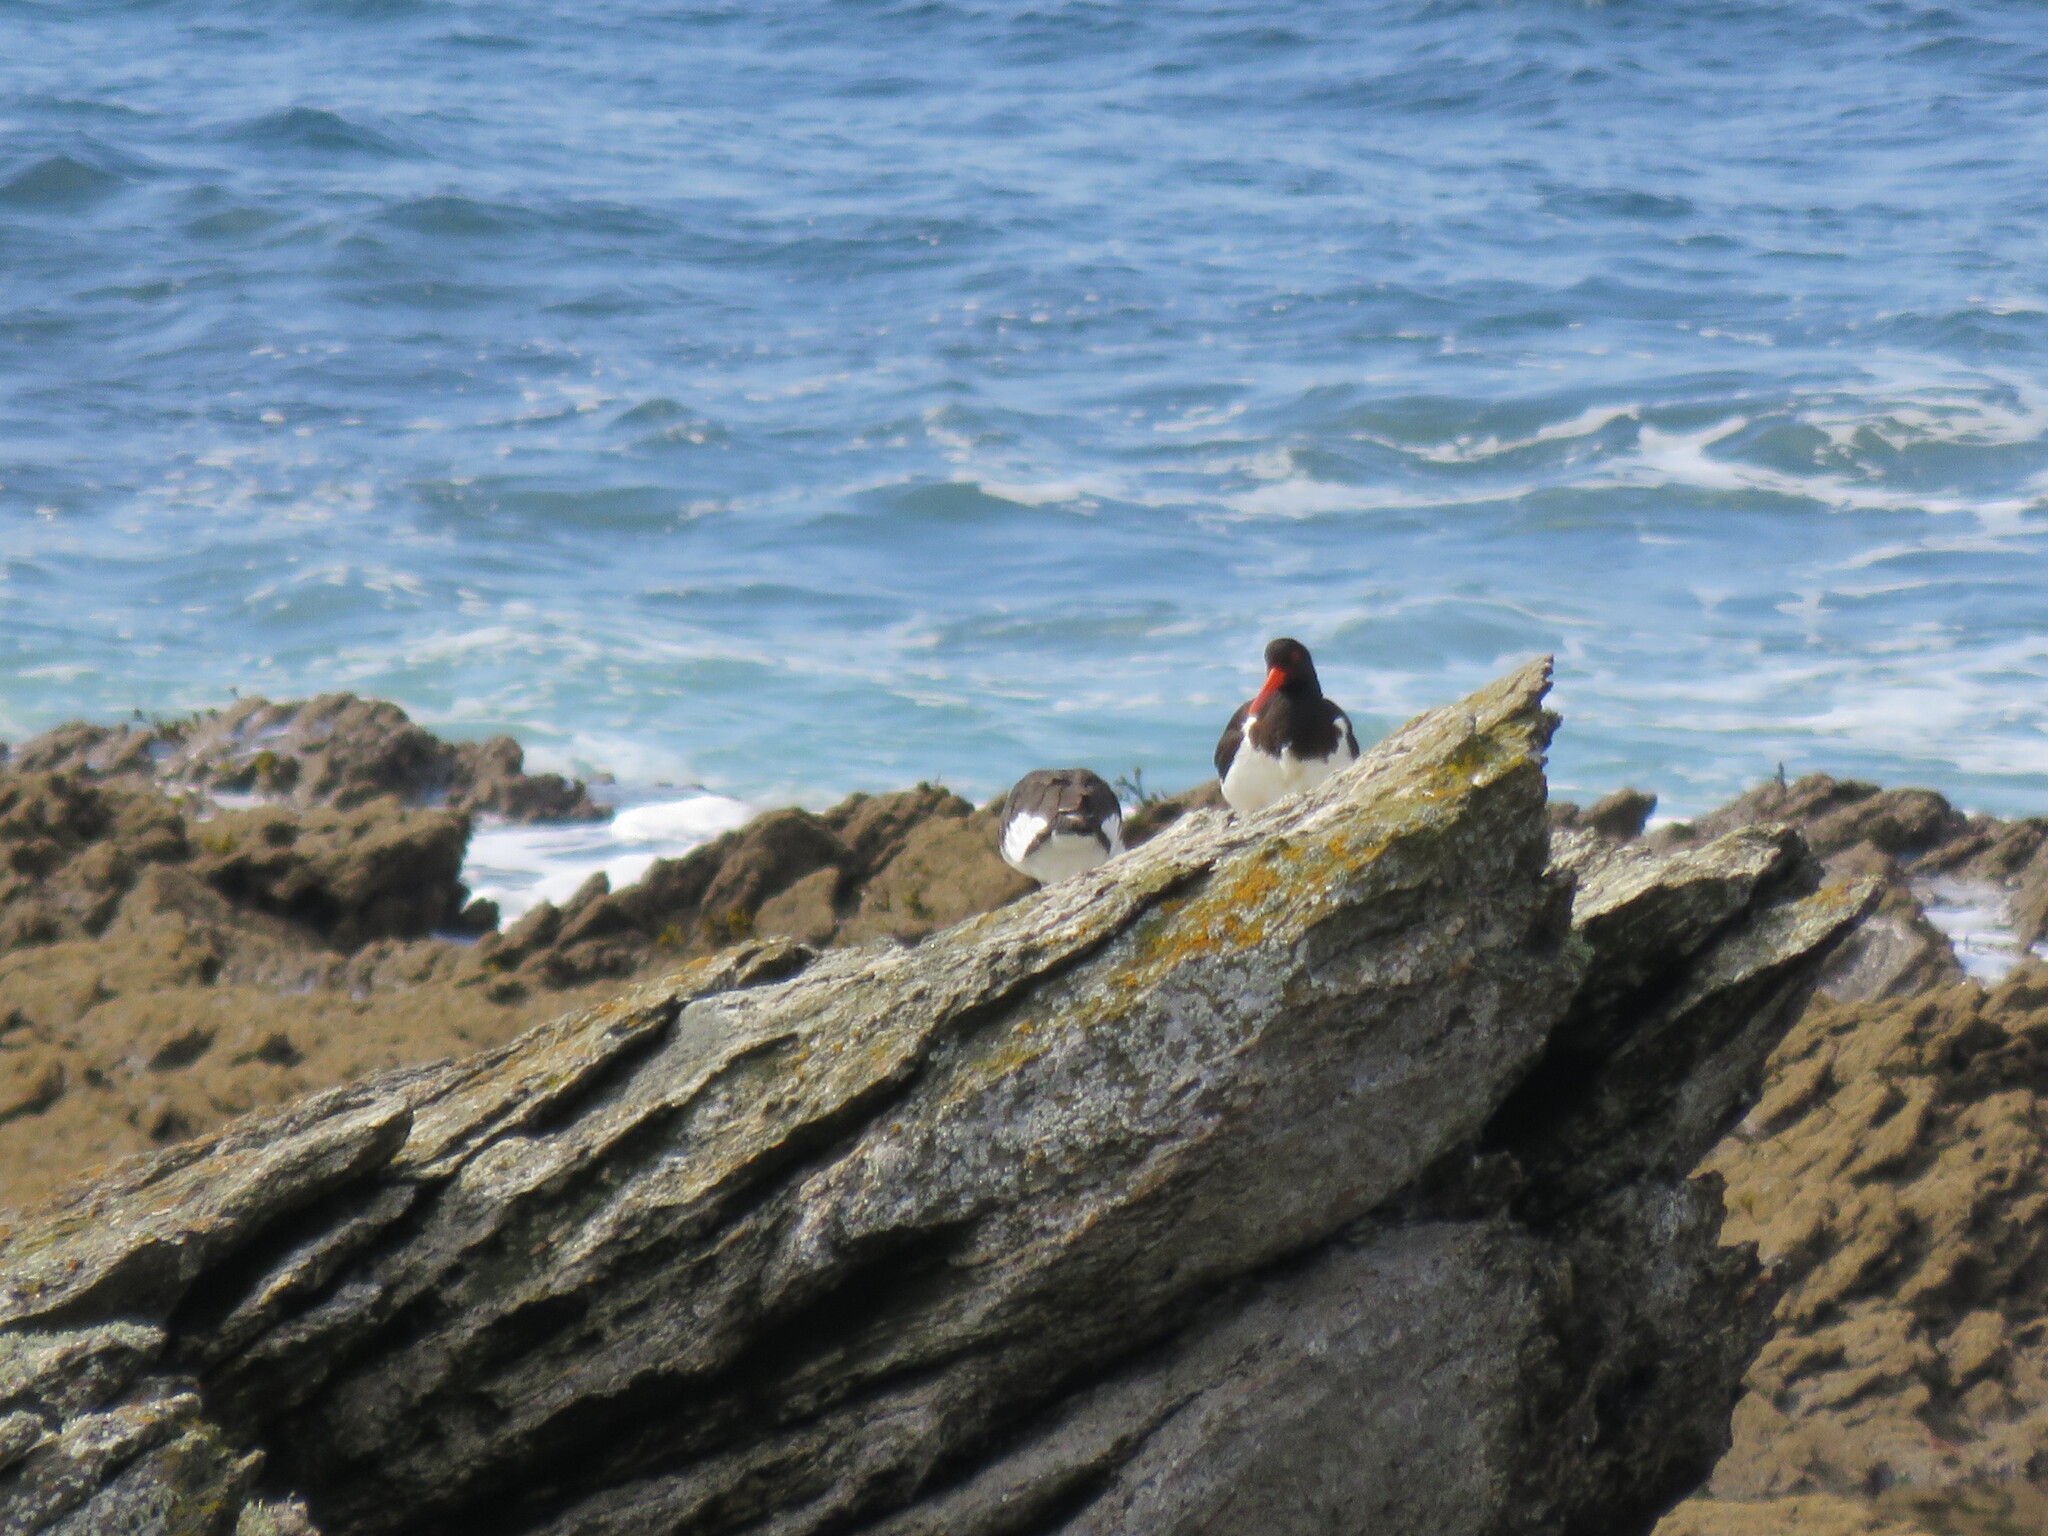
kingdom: Animalia
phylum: Chordata
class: Aves
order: Charadriiformes
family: Haematopodidae
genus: Haematopus
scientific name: Haematopus ostralegus
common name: Eurasian oystercatcher
